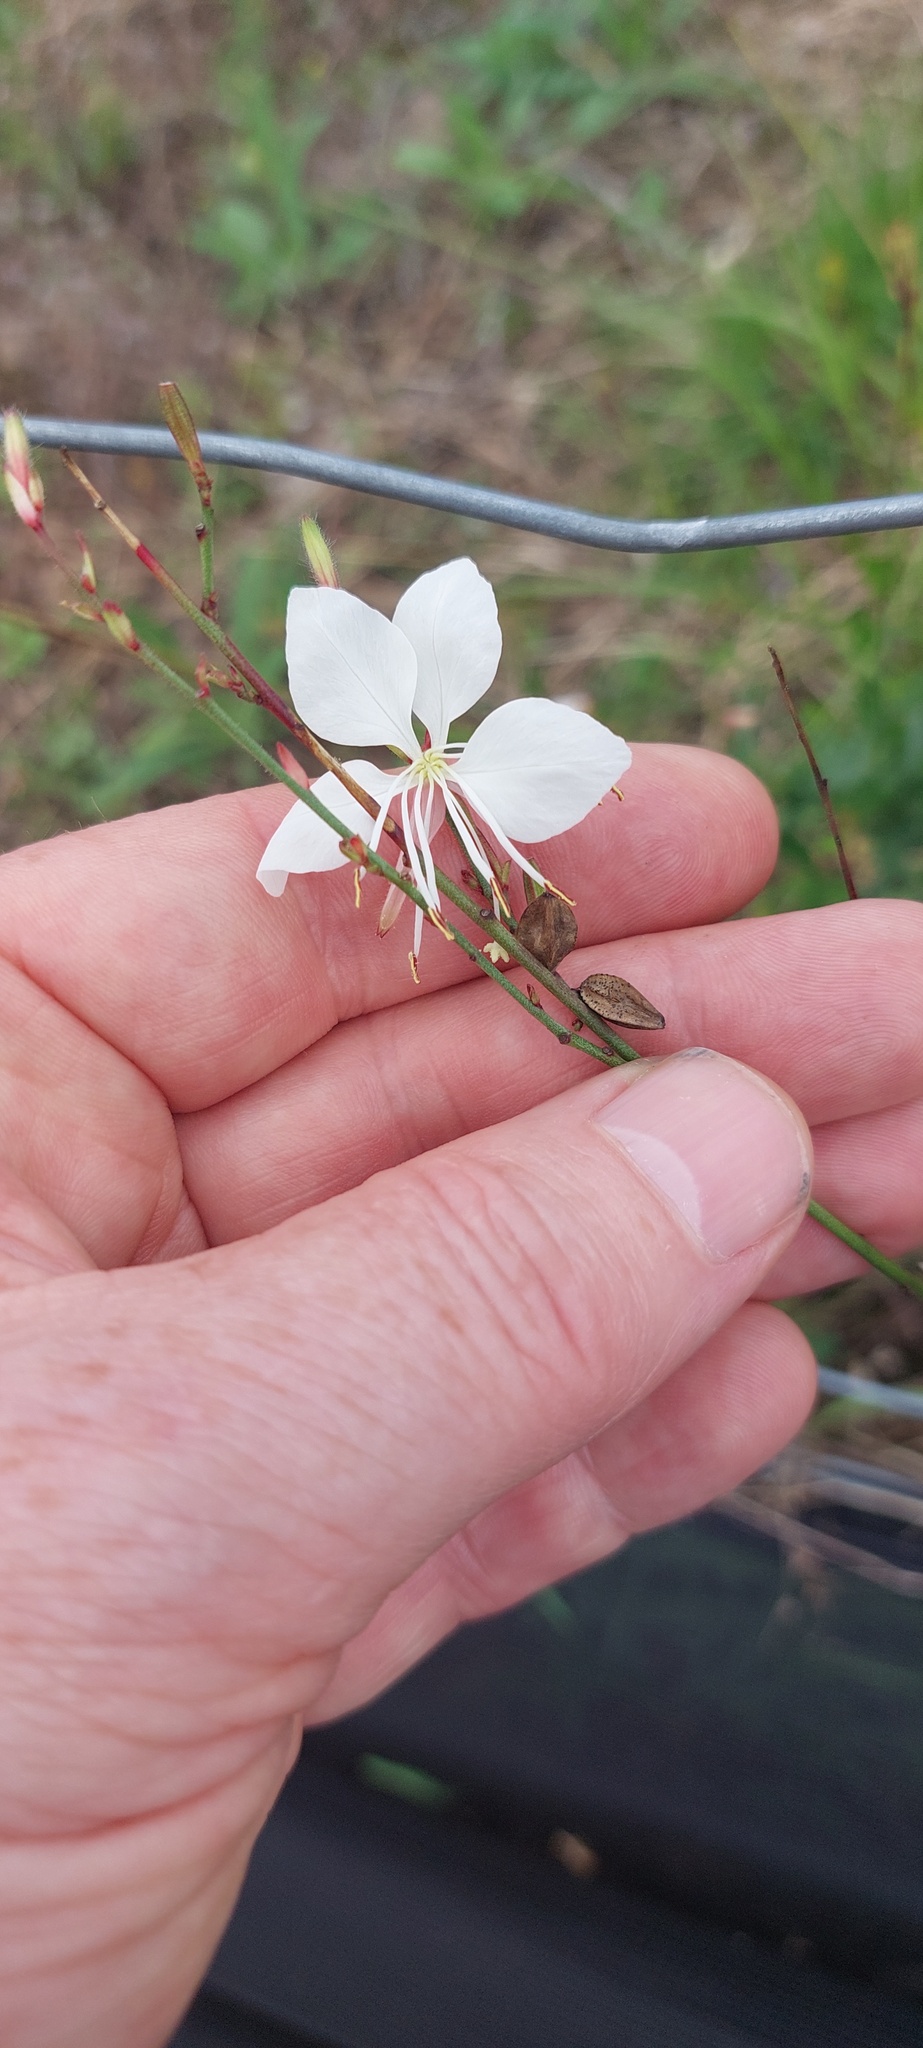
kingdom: Plantae
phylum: Tracheophyta
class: Magnoliopsida
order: Myrtales
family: Onagraceae
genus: Oenothera
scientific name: Oenothera lindheimeri
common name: Lindheimer's beeblossom
